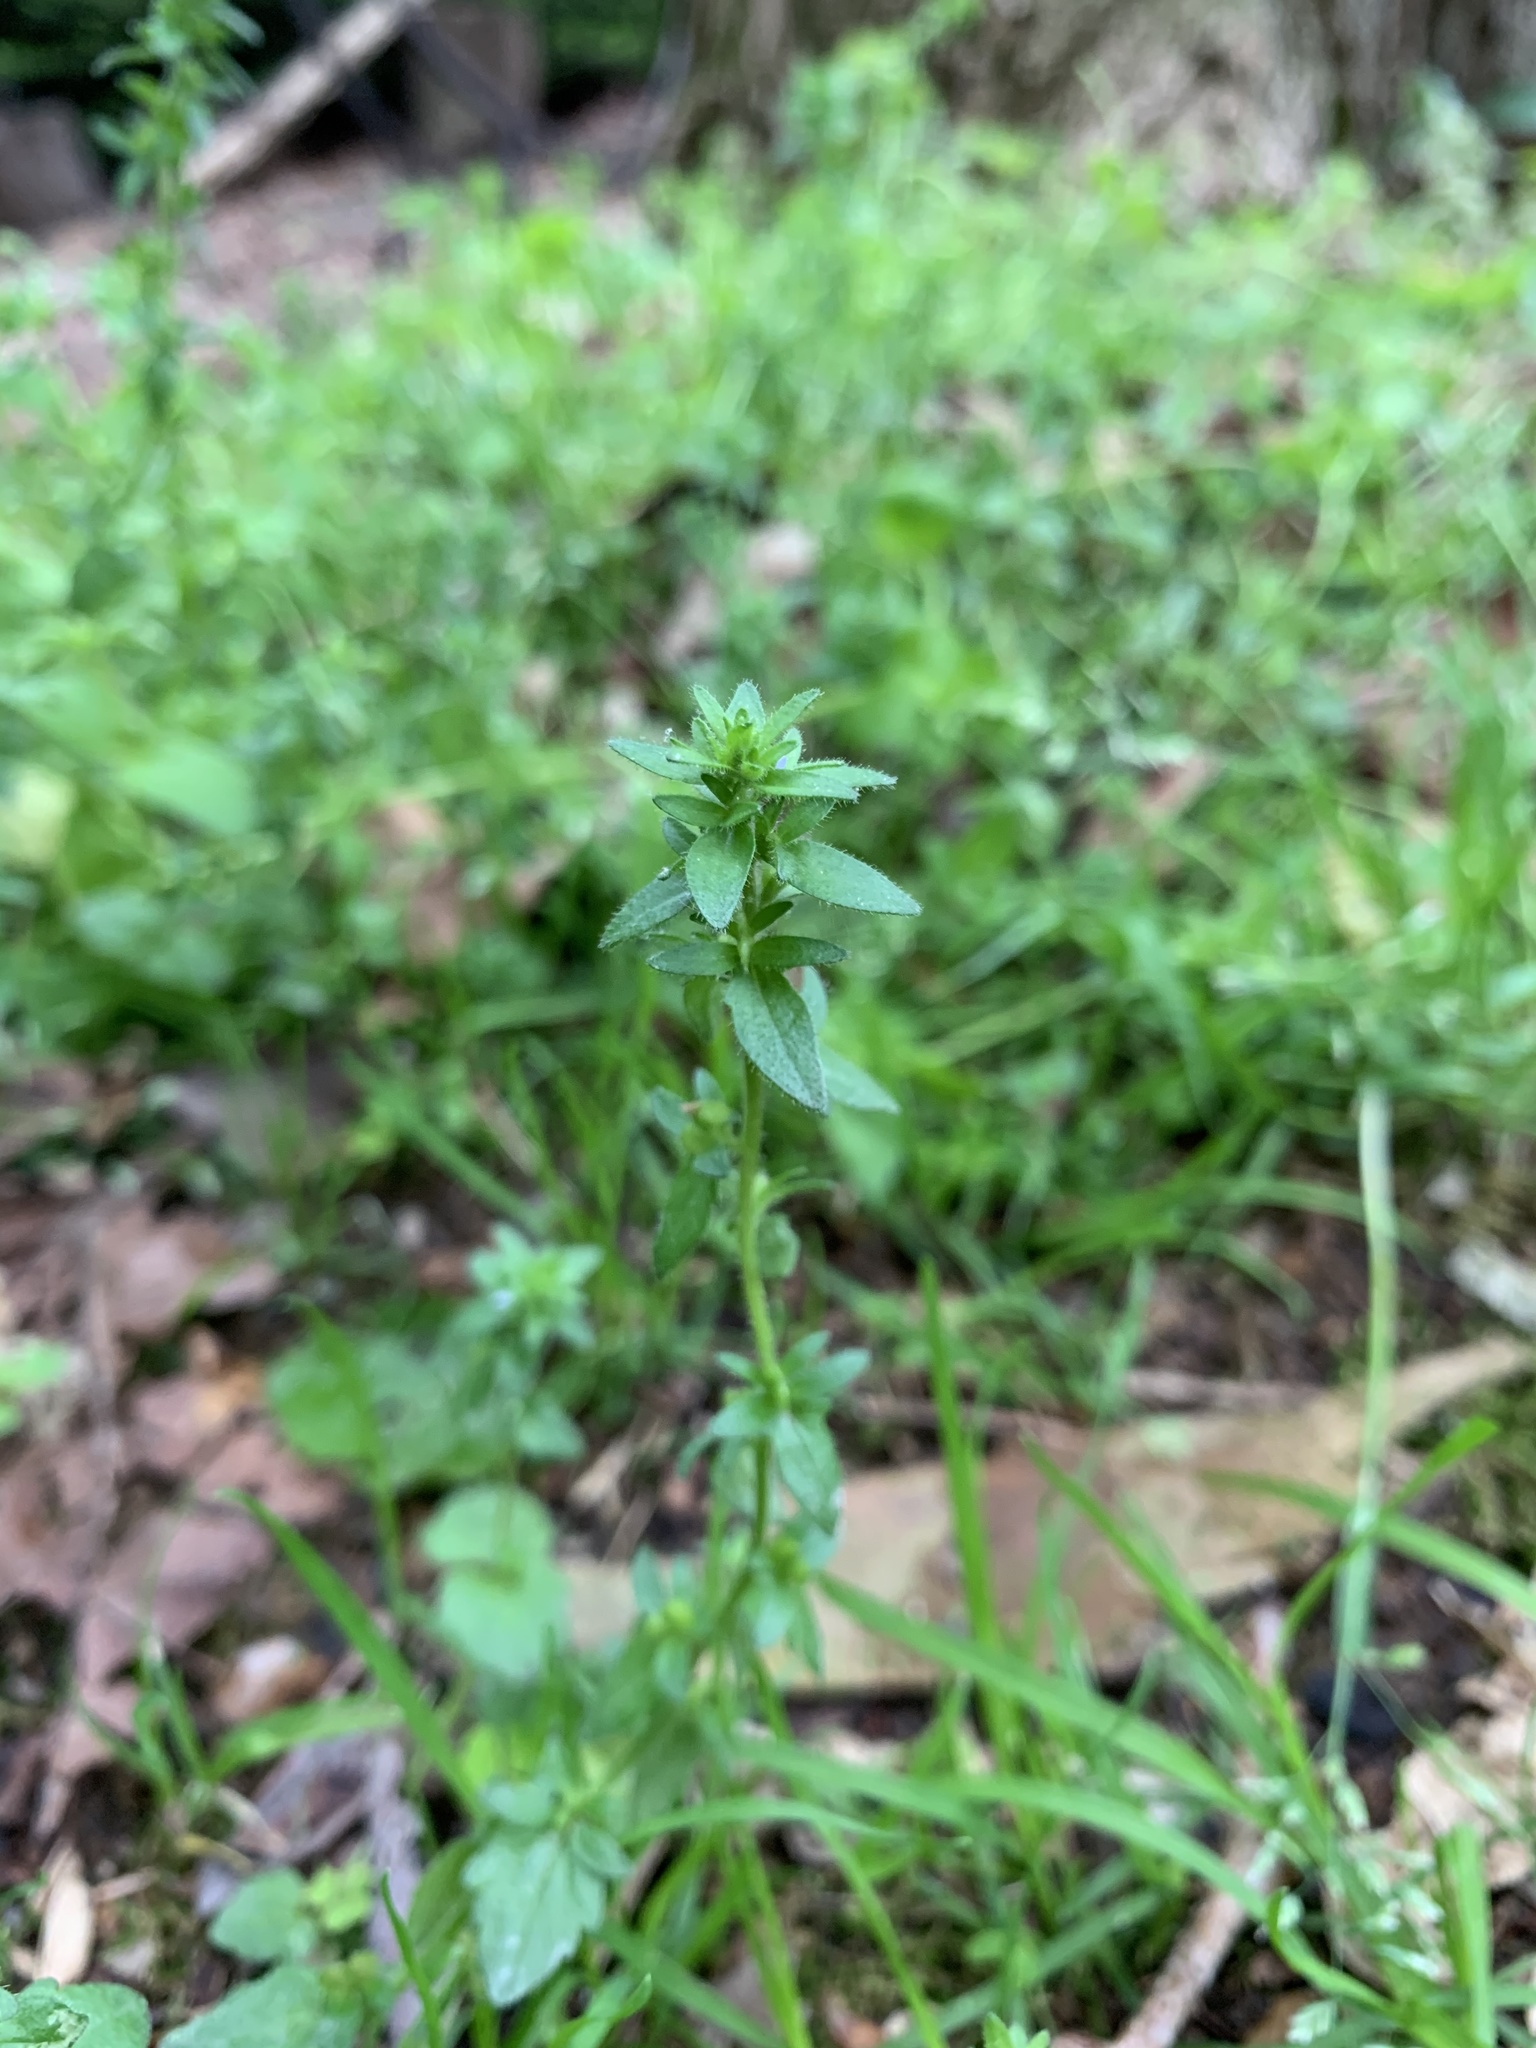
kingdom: Plantae
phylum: Tracheophyta
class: Magnoliopsida
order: Lamiales
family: Plantaginaceae
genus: Veronica
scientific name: Veronica arvensis
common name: Corn speedwell
